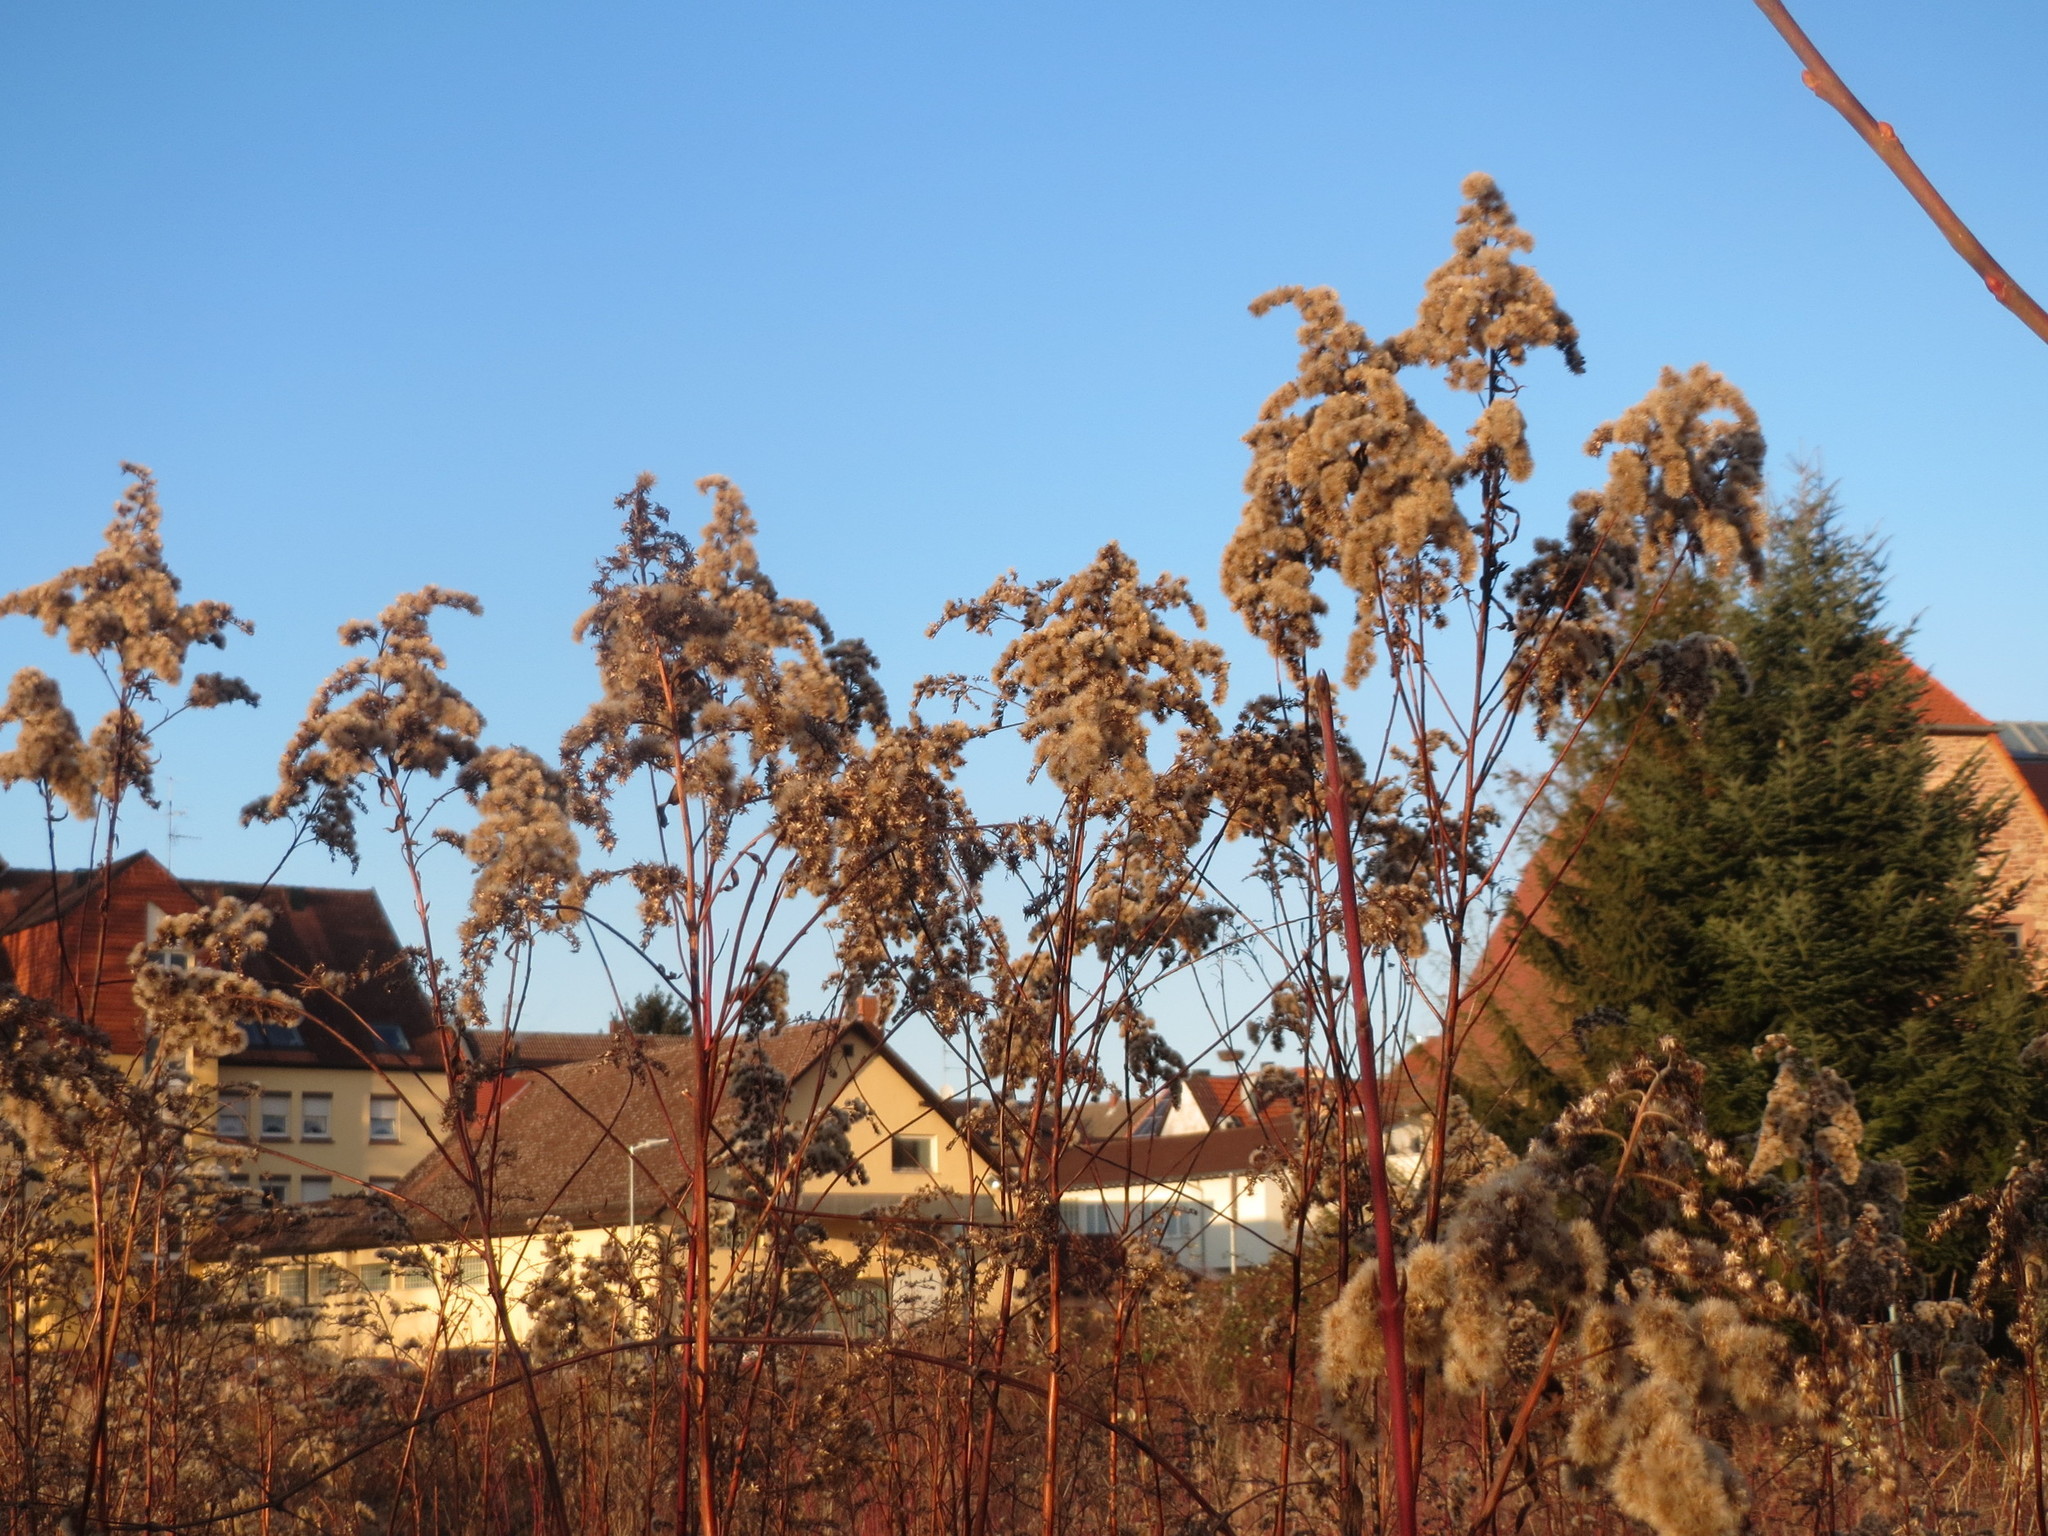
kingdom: Plantae
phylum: Tracheophyta
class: Magnoliopsida
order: Asterales
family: Asteraceae
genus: Solidago
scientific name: Solidago canadensis
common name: Canada goldenrod
